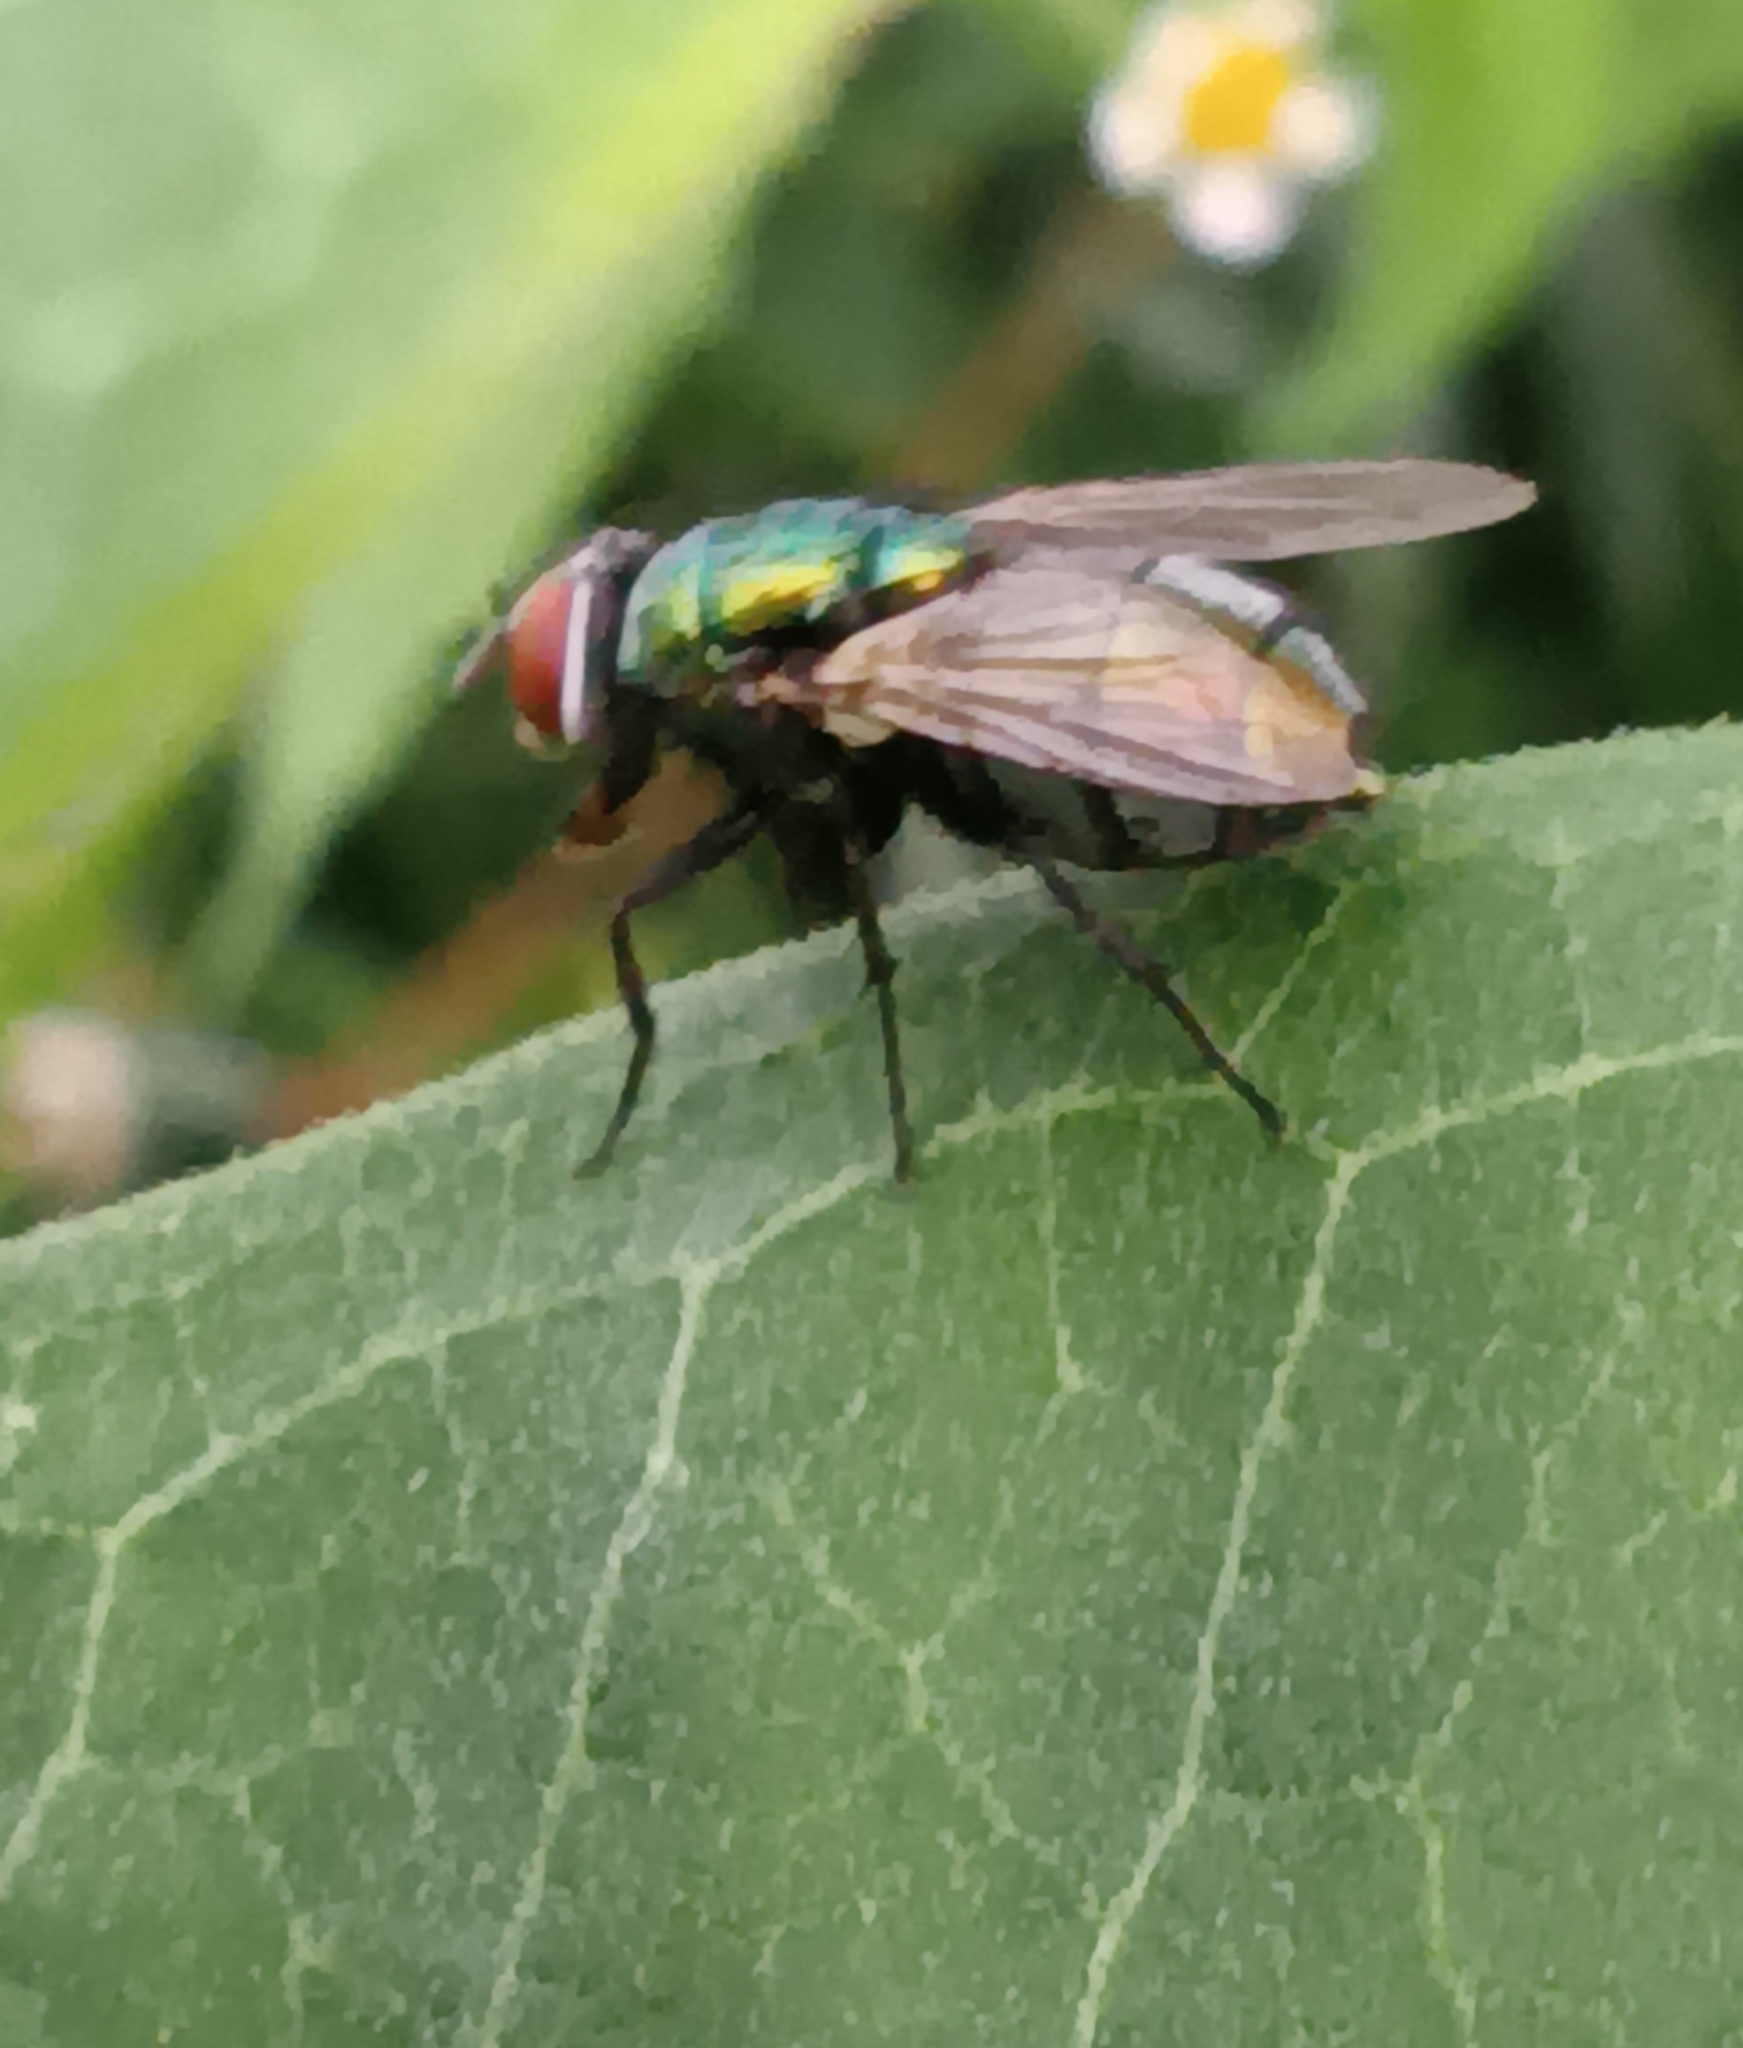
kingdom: Animalia
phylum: Arthropoda
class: Insecta
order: Diptera
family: Calliphoridae
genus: Lucilia
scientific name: Lucilia sericata
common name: Blow fly
